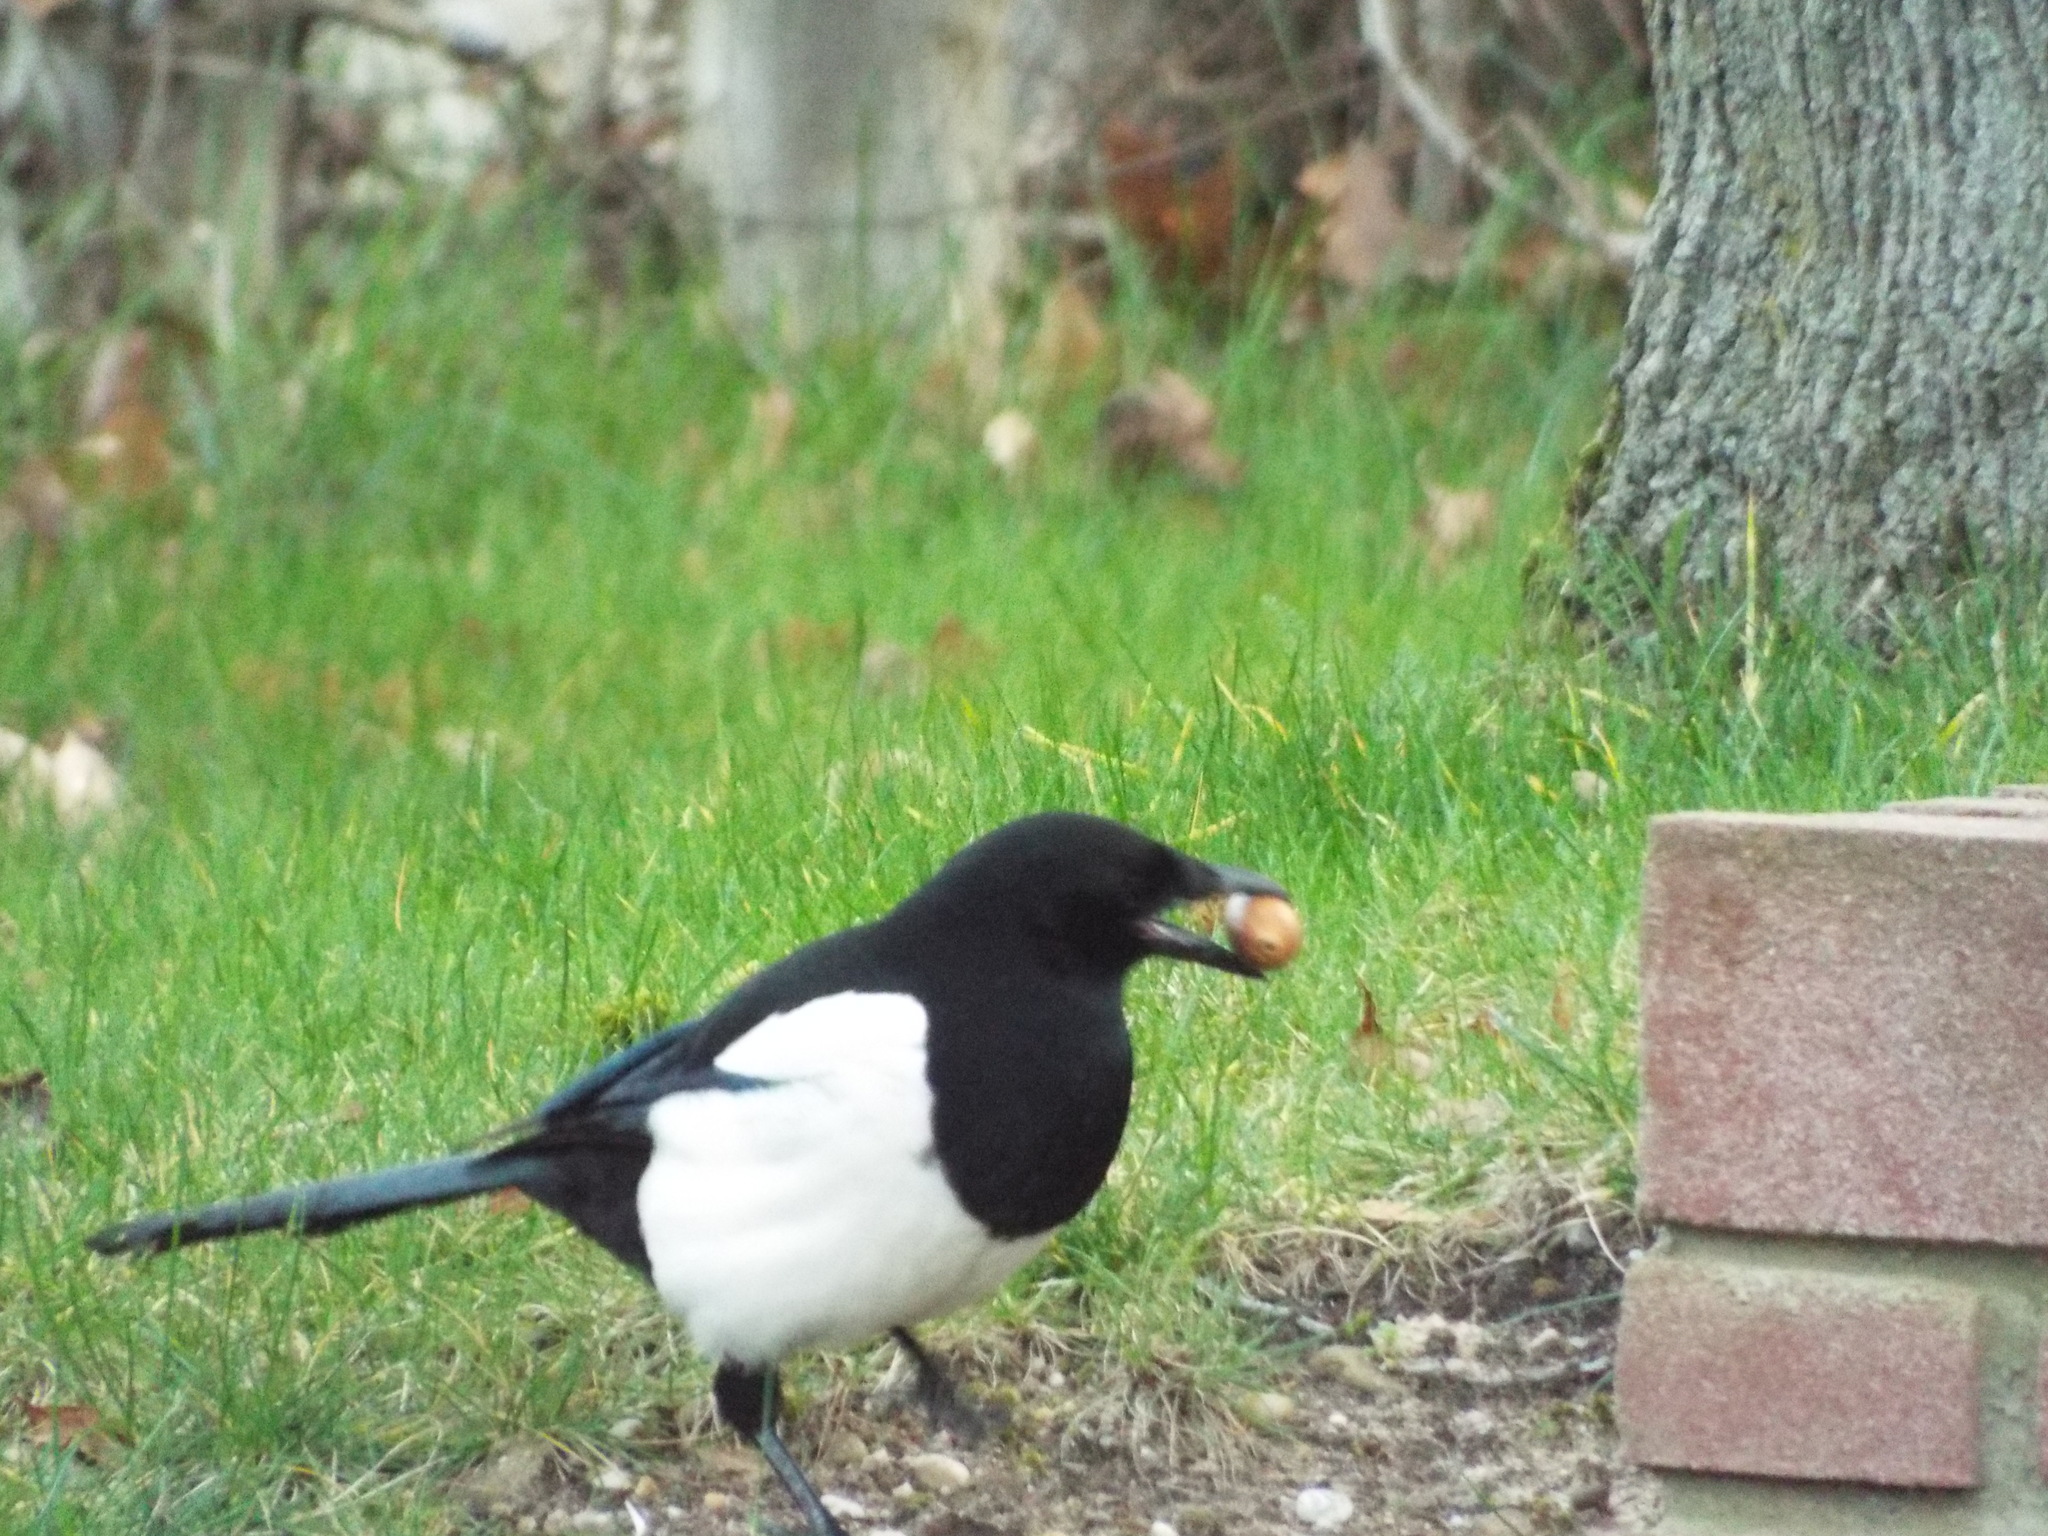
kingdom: Animalia
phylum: Chordata
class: Aves
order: Passeriformes
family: Corvidae
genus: Pica
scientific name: Pica pica
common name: Eurasian magpie
